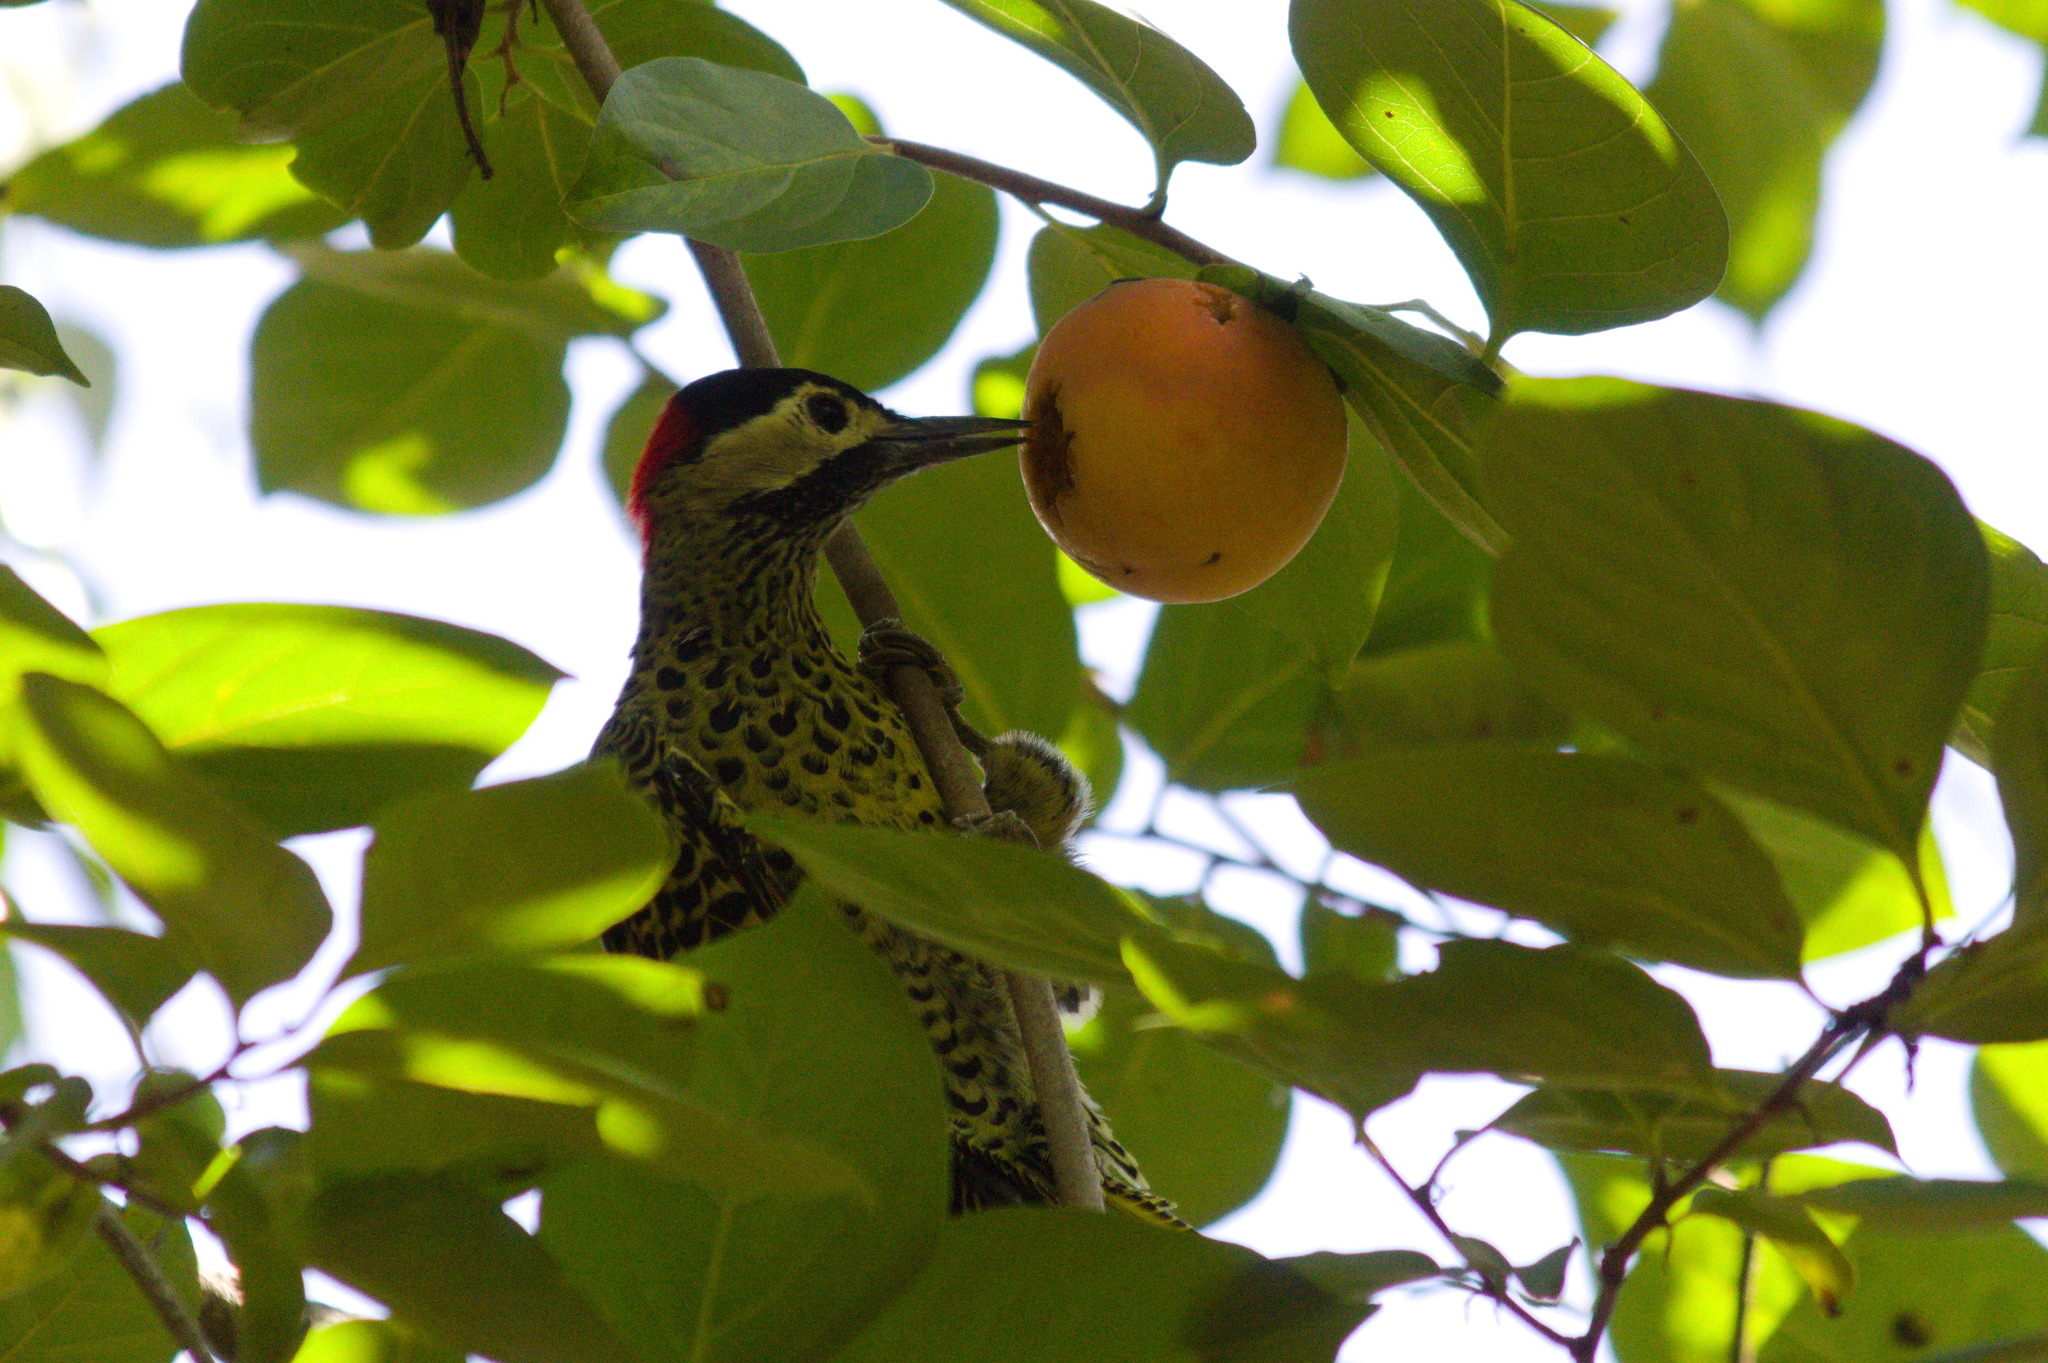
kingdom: Animalia
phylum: Chordata
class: Aves
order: Piciformes
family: Picidae
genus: Colaptes
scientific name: Colaptes melanochloros
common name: Green-barred woodpecker
